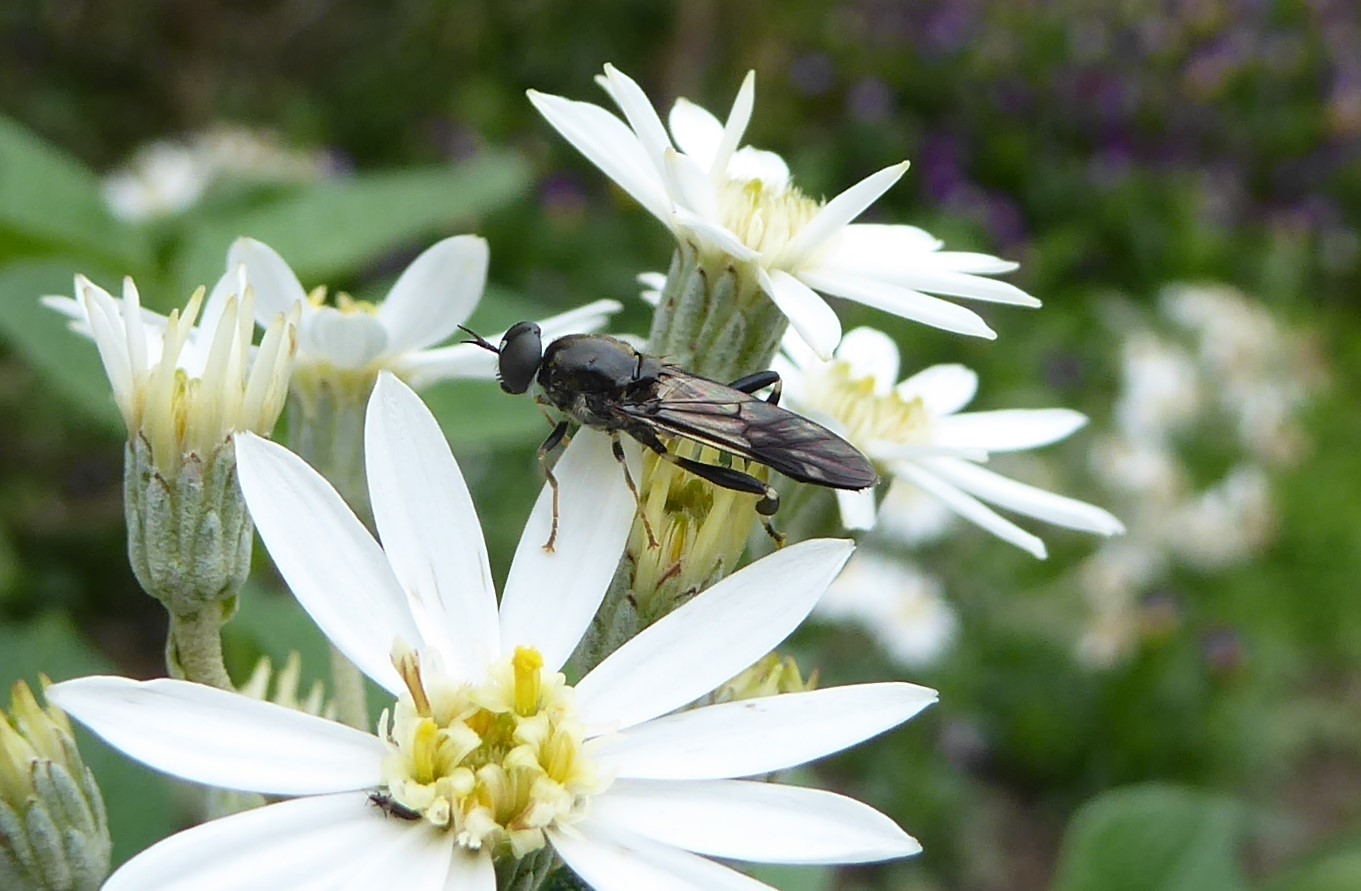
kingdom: Animalia
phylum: Arthropoda
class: Insecta
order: Diptera
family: Stratiomyidae
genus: Exaireta
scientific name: Exaireta spinigera
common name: Blue soldier fly
